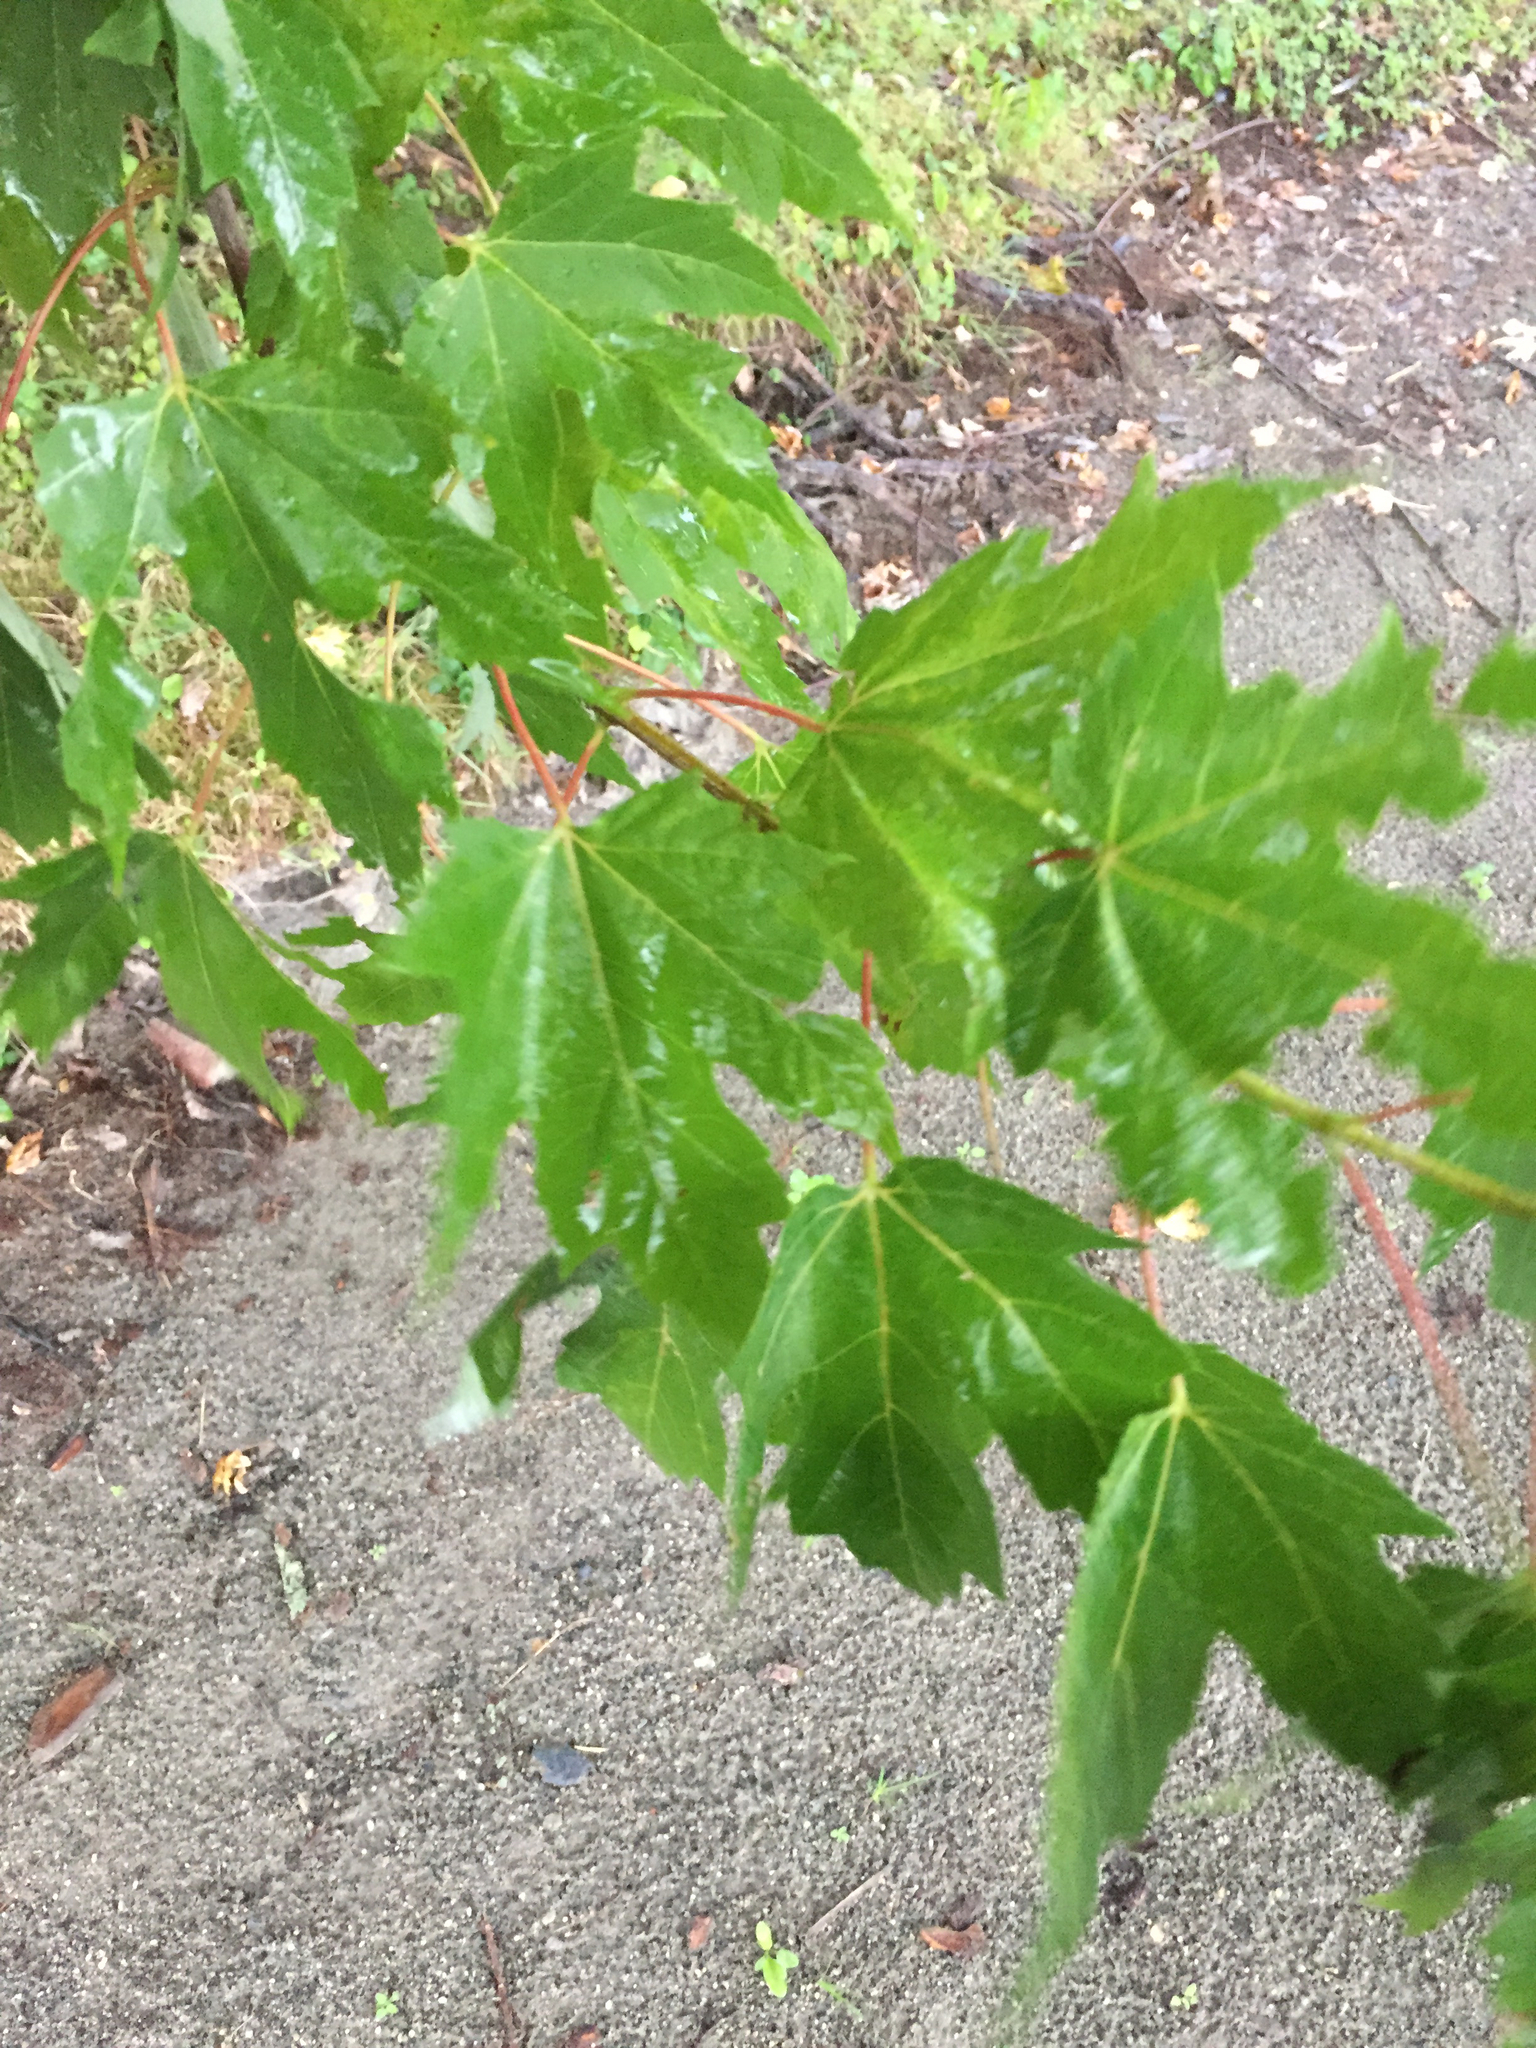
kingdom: Plantae
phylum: Tracheophyta
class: Magnoliopsida
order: Sapindales
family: Sapindaceae
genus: Acer
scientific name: Acer saccharinum
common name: Silver maple
